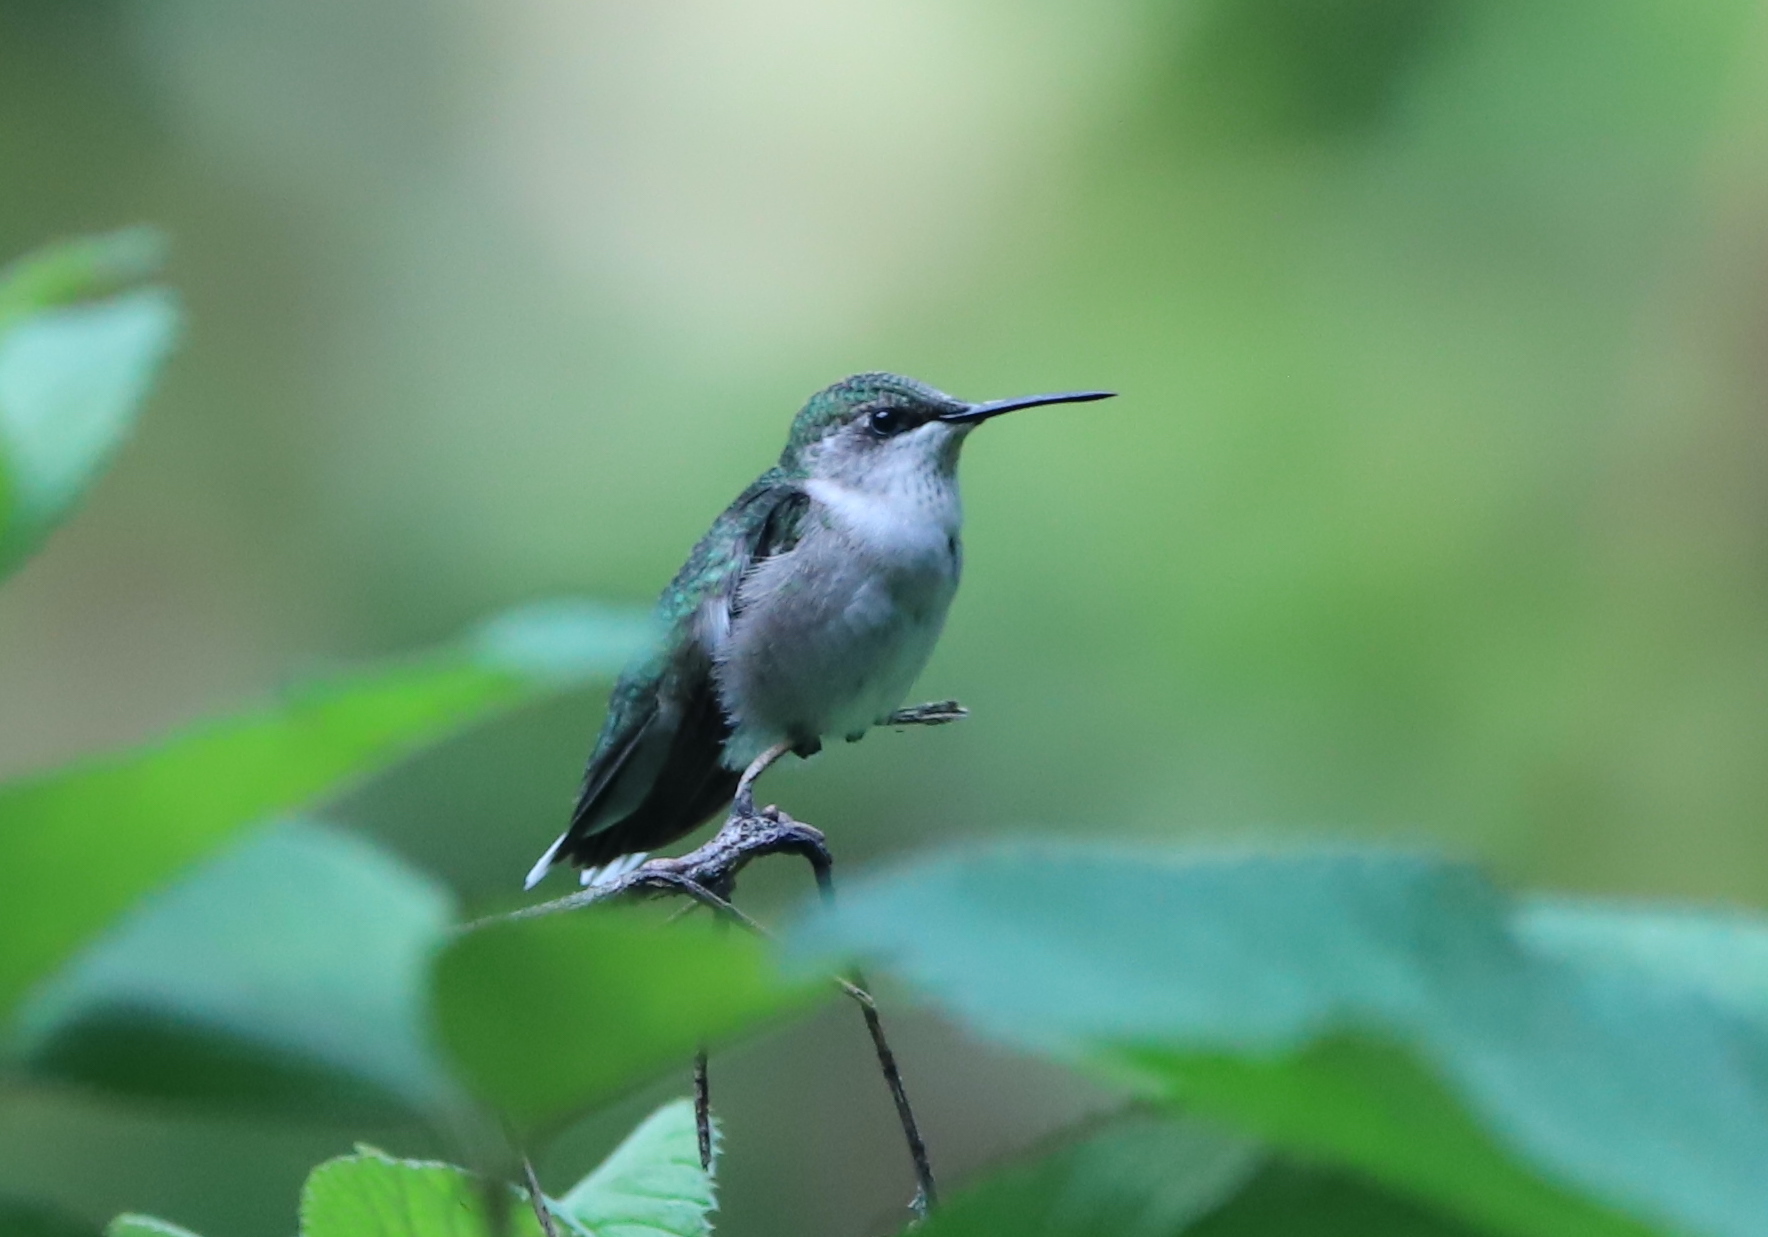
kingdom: Animalia
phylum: Chordata
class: Aves
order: Apodiformes
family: Trochilidae
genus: Archilochus
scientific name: Archilochus colubris
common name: Ruby-throated hummingbird
